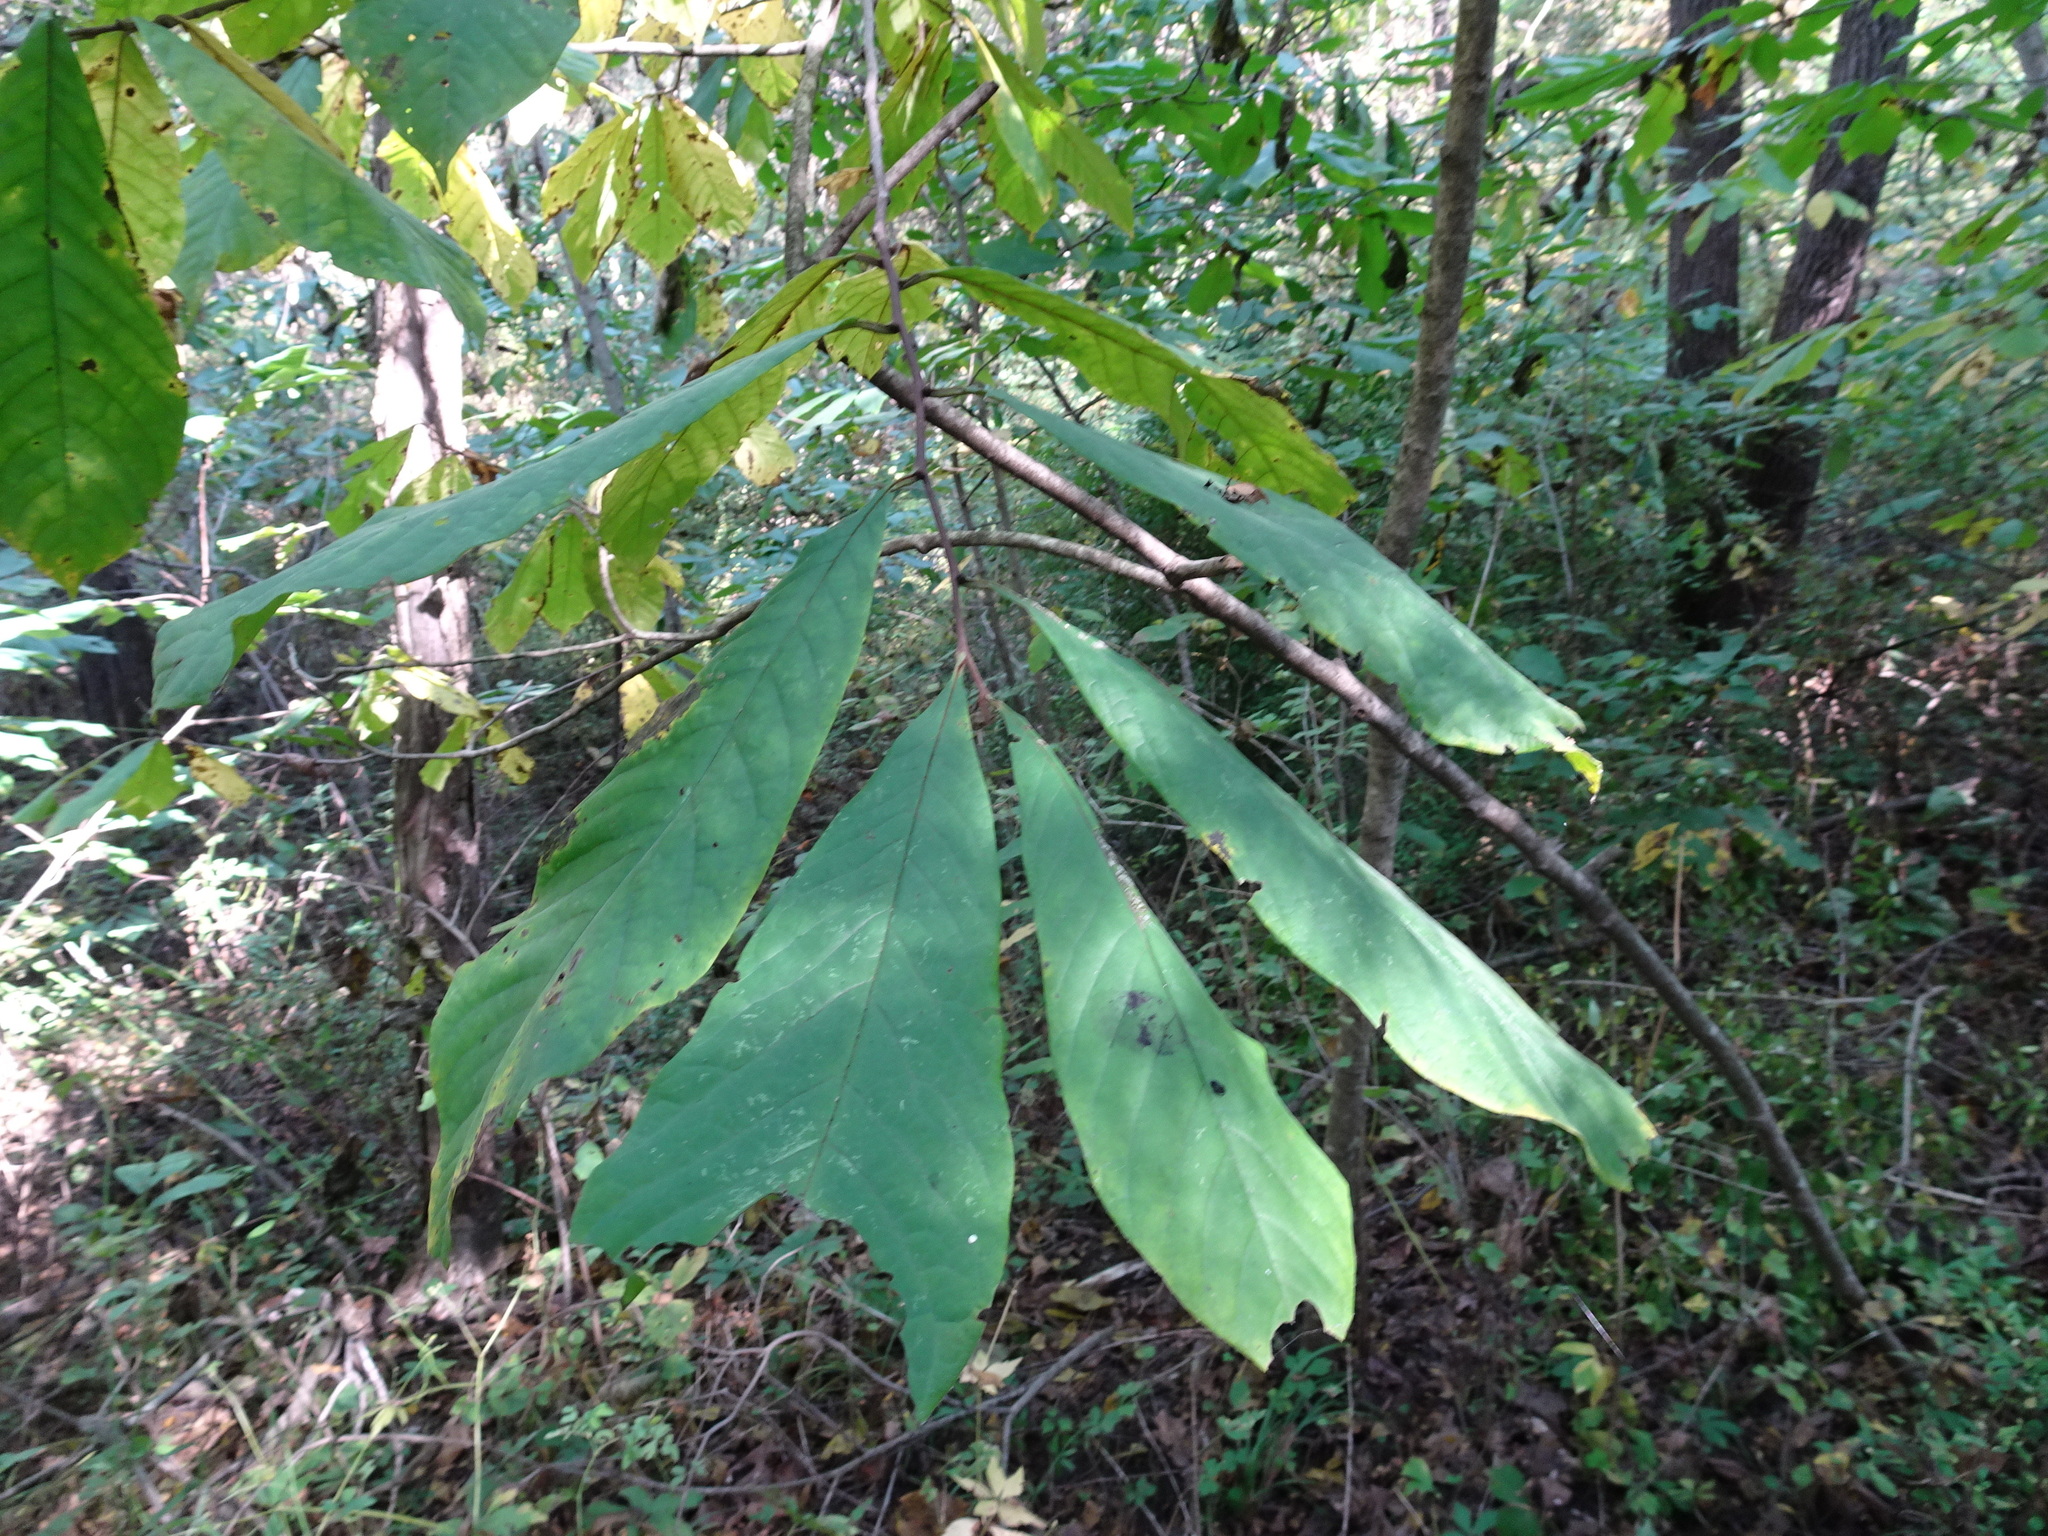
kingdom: Plantae
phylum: Tracheophyta
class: Magnoliopsida
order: Magnoliales
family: Annonaceae
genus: Asimina
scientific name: Asimina triloba
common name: Dog-banana
